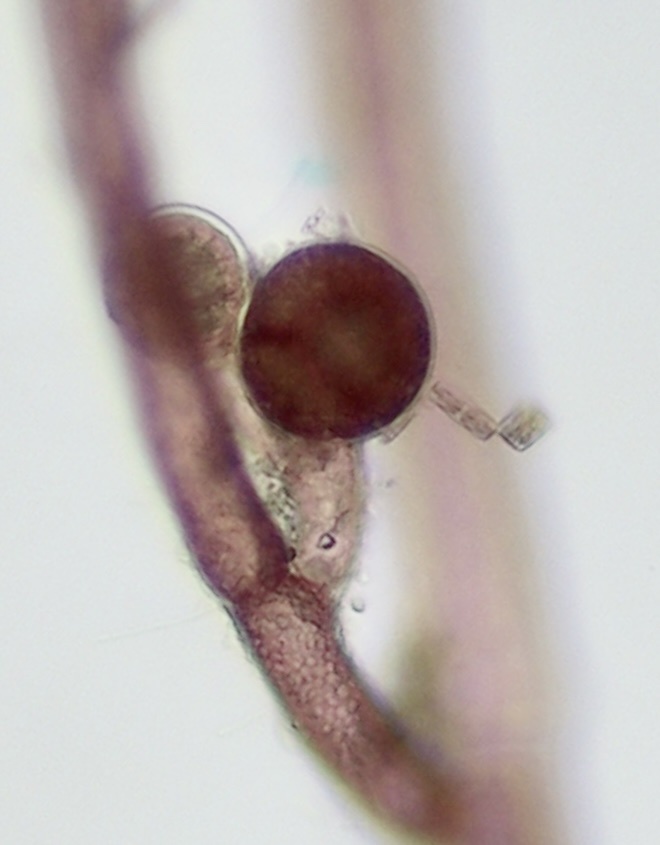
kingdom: Plantae
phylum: Rhodophyta
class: Florideophyceae
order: Ceramiales
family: Wrangeliaceae
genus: Spermothamnion
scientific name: Spermothamnion repens
